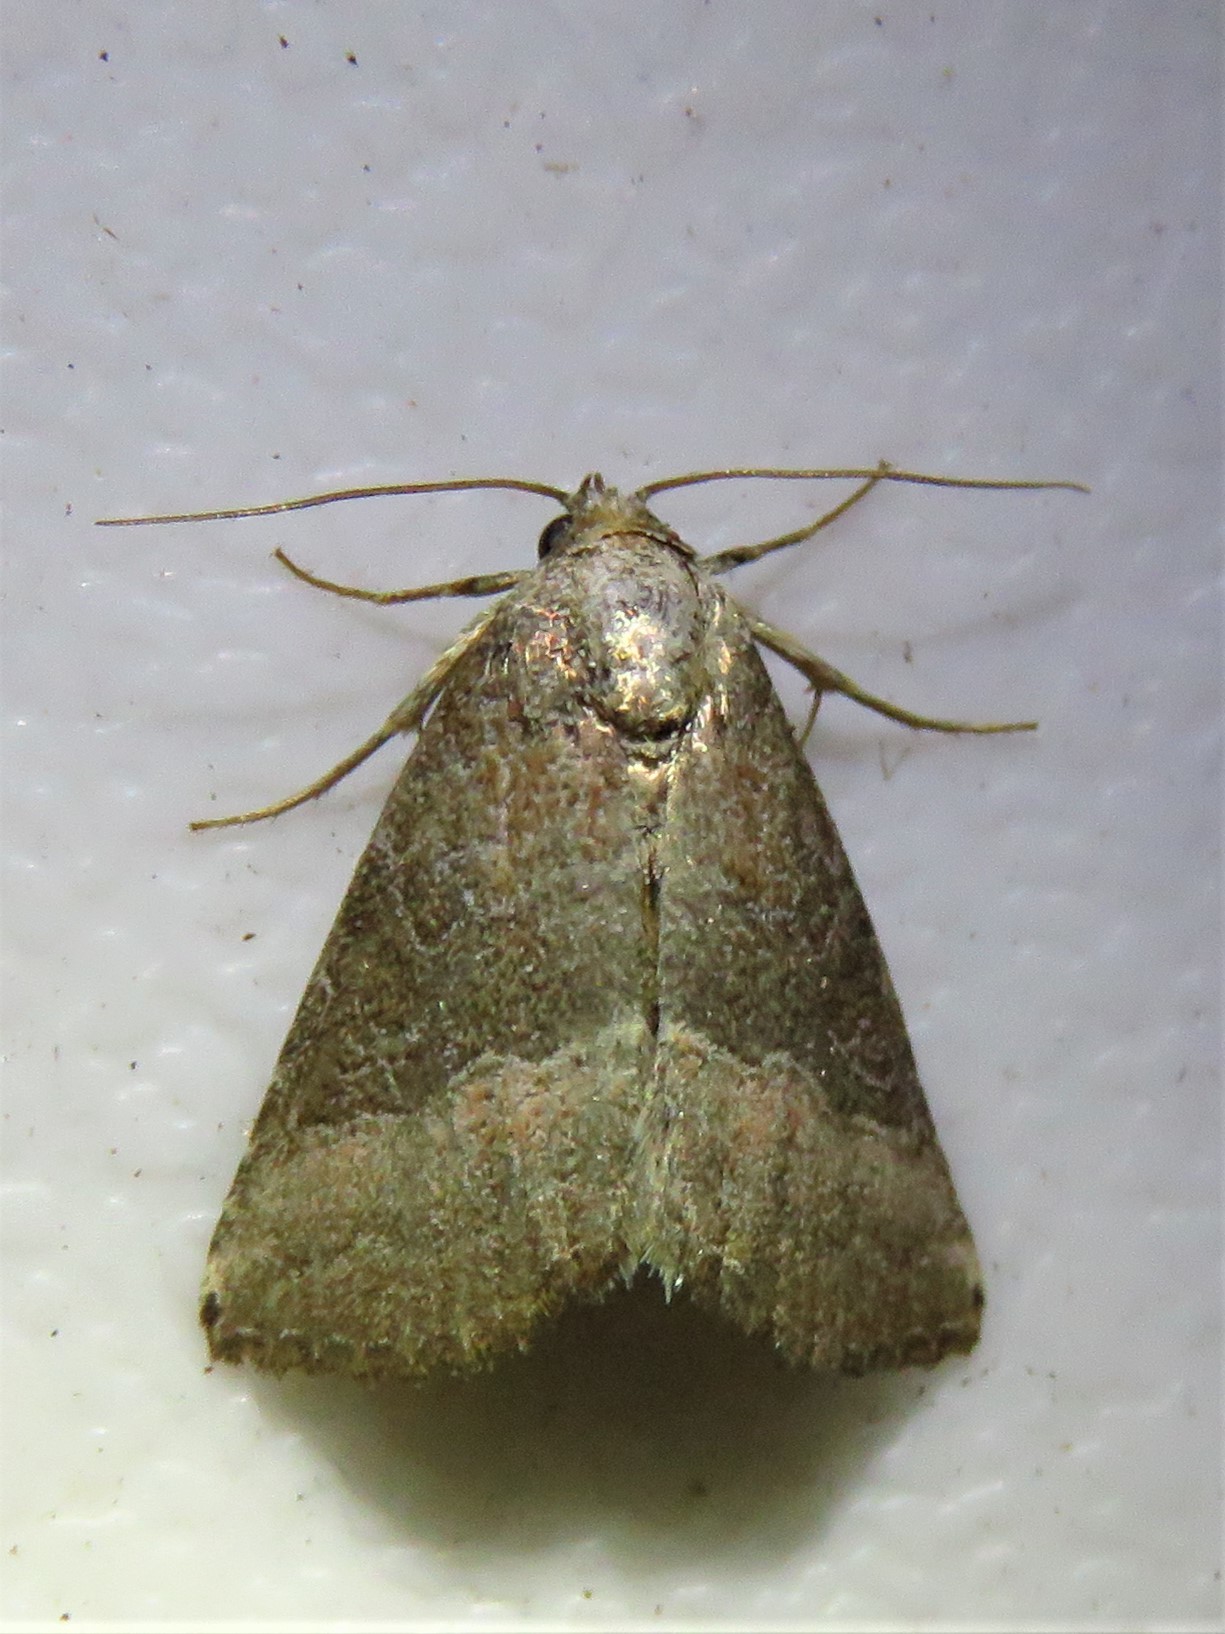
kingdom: Animalia
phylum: Arthropoda
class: Insecta
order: Lepidoptera
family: Noctuidae
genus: Ogdoconta
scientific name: Ogdoconta cinereola
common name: Common pinkband
